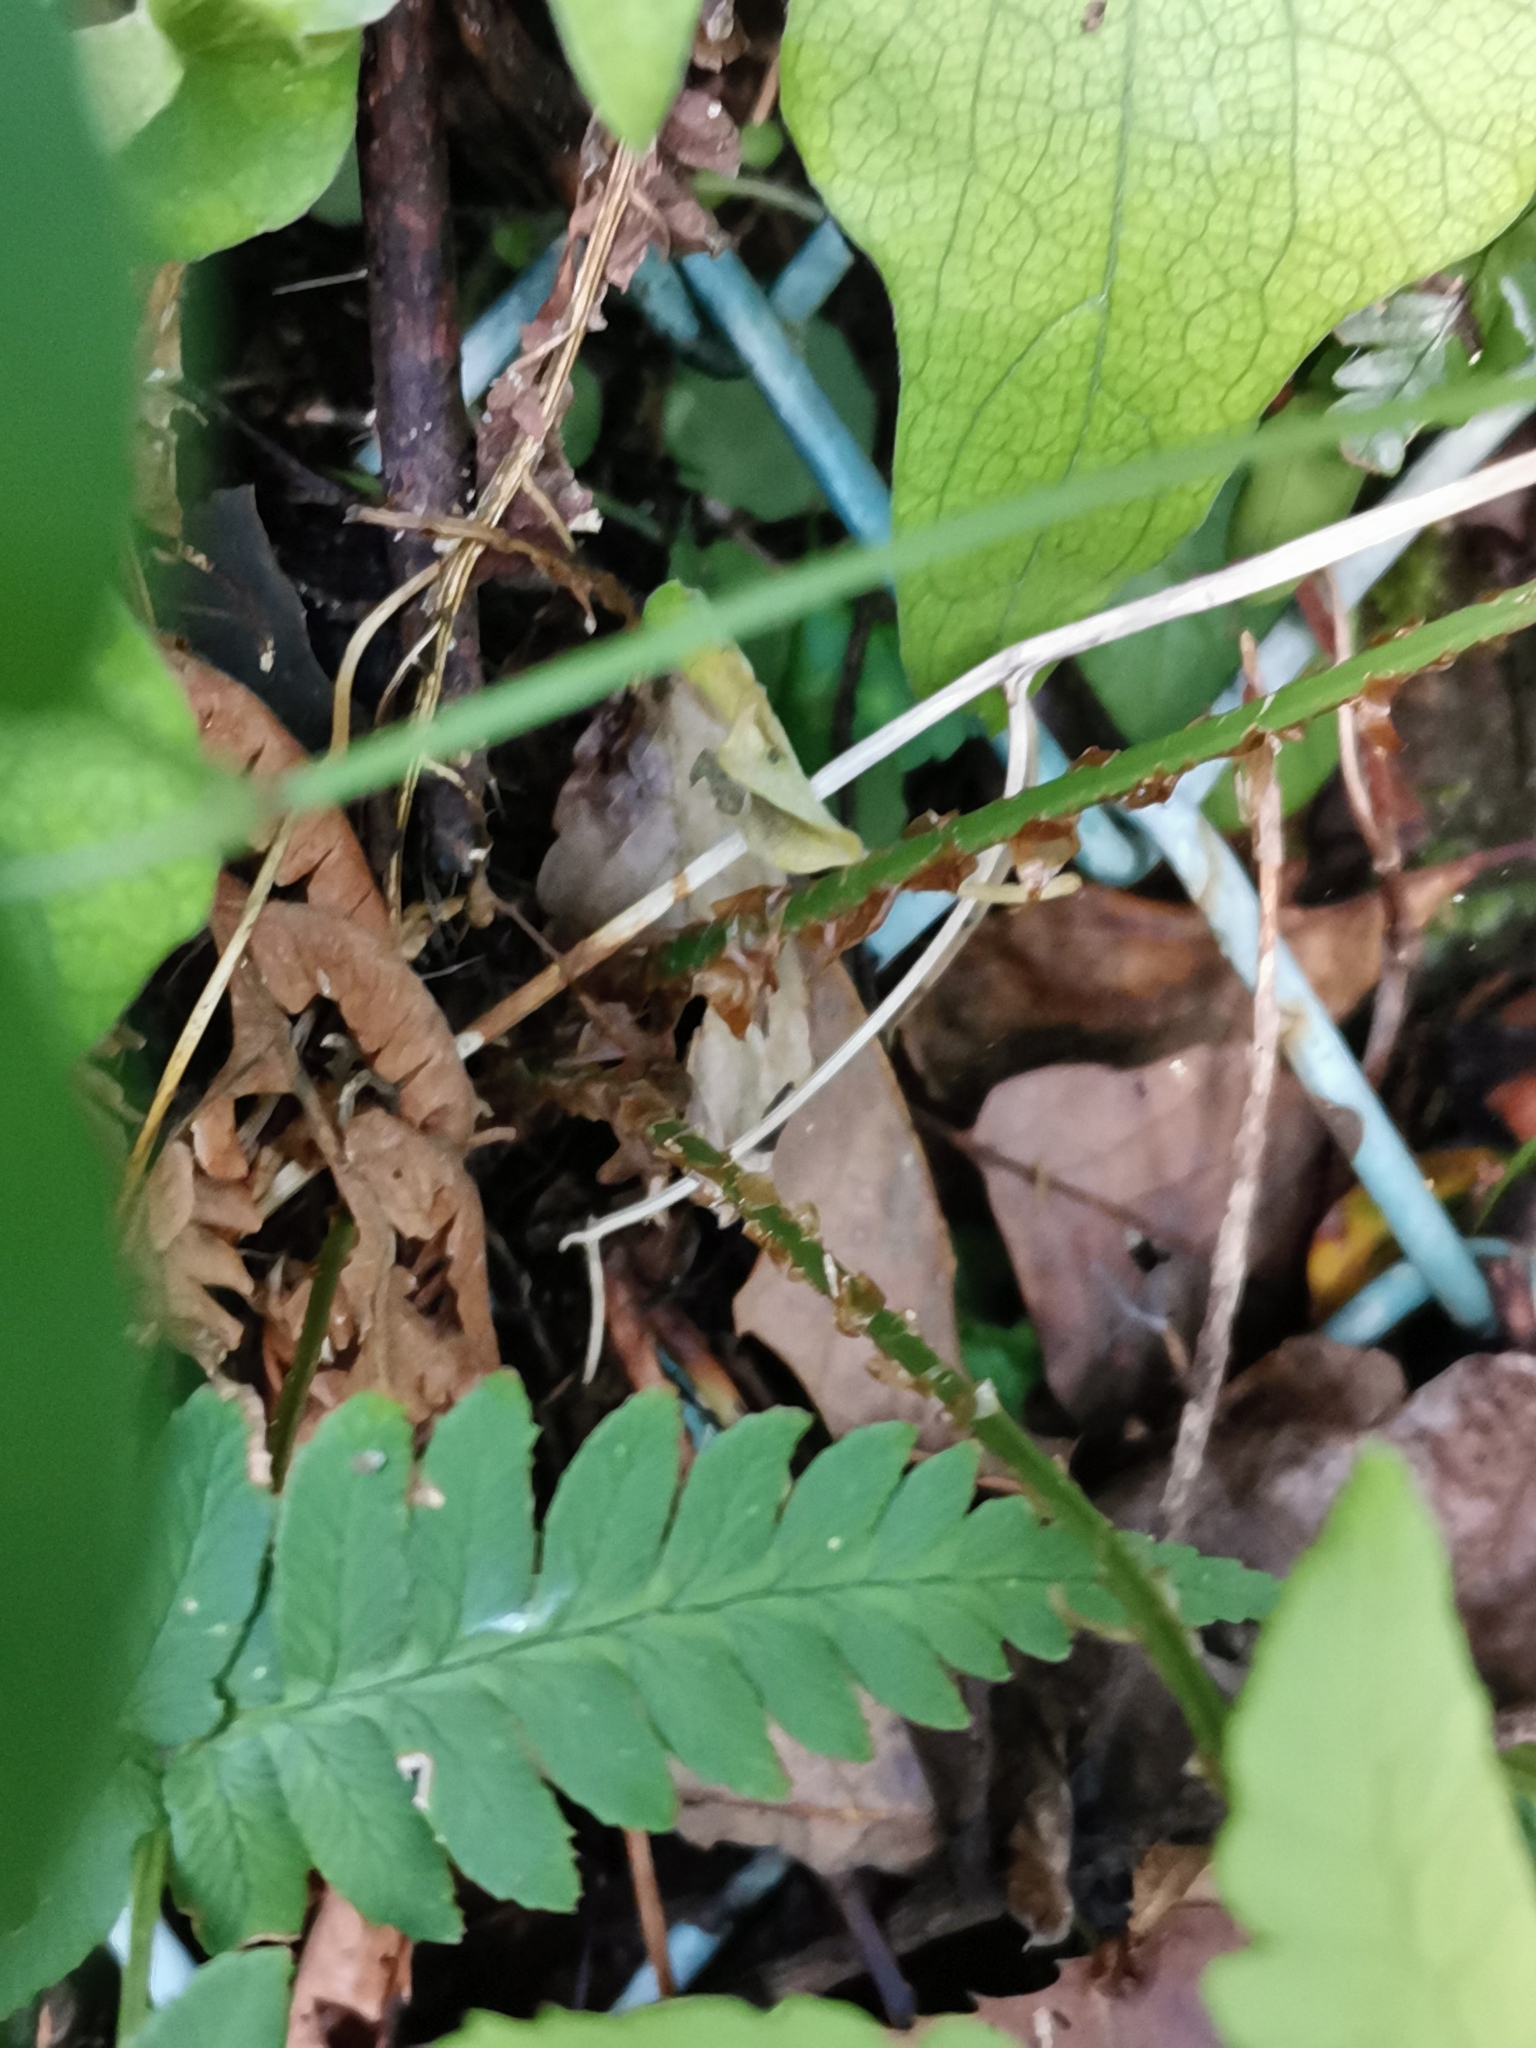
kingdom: Plantae
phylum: Tracheophyta
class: Polypodiopsida
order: Polypodiales
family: Dryopteridaceae
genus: Dryopteris
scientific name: Dryopteris lacera
